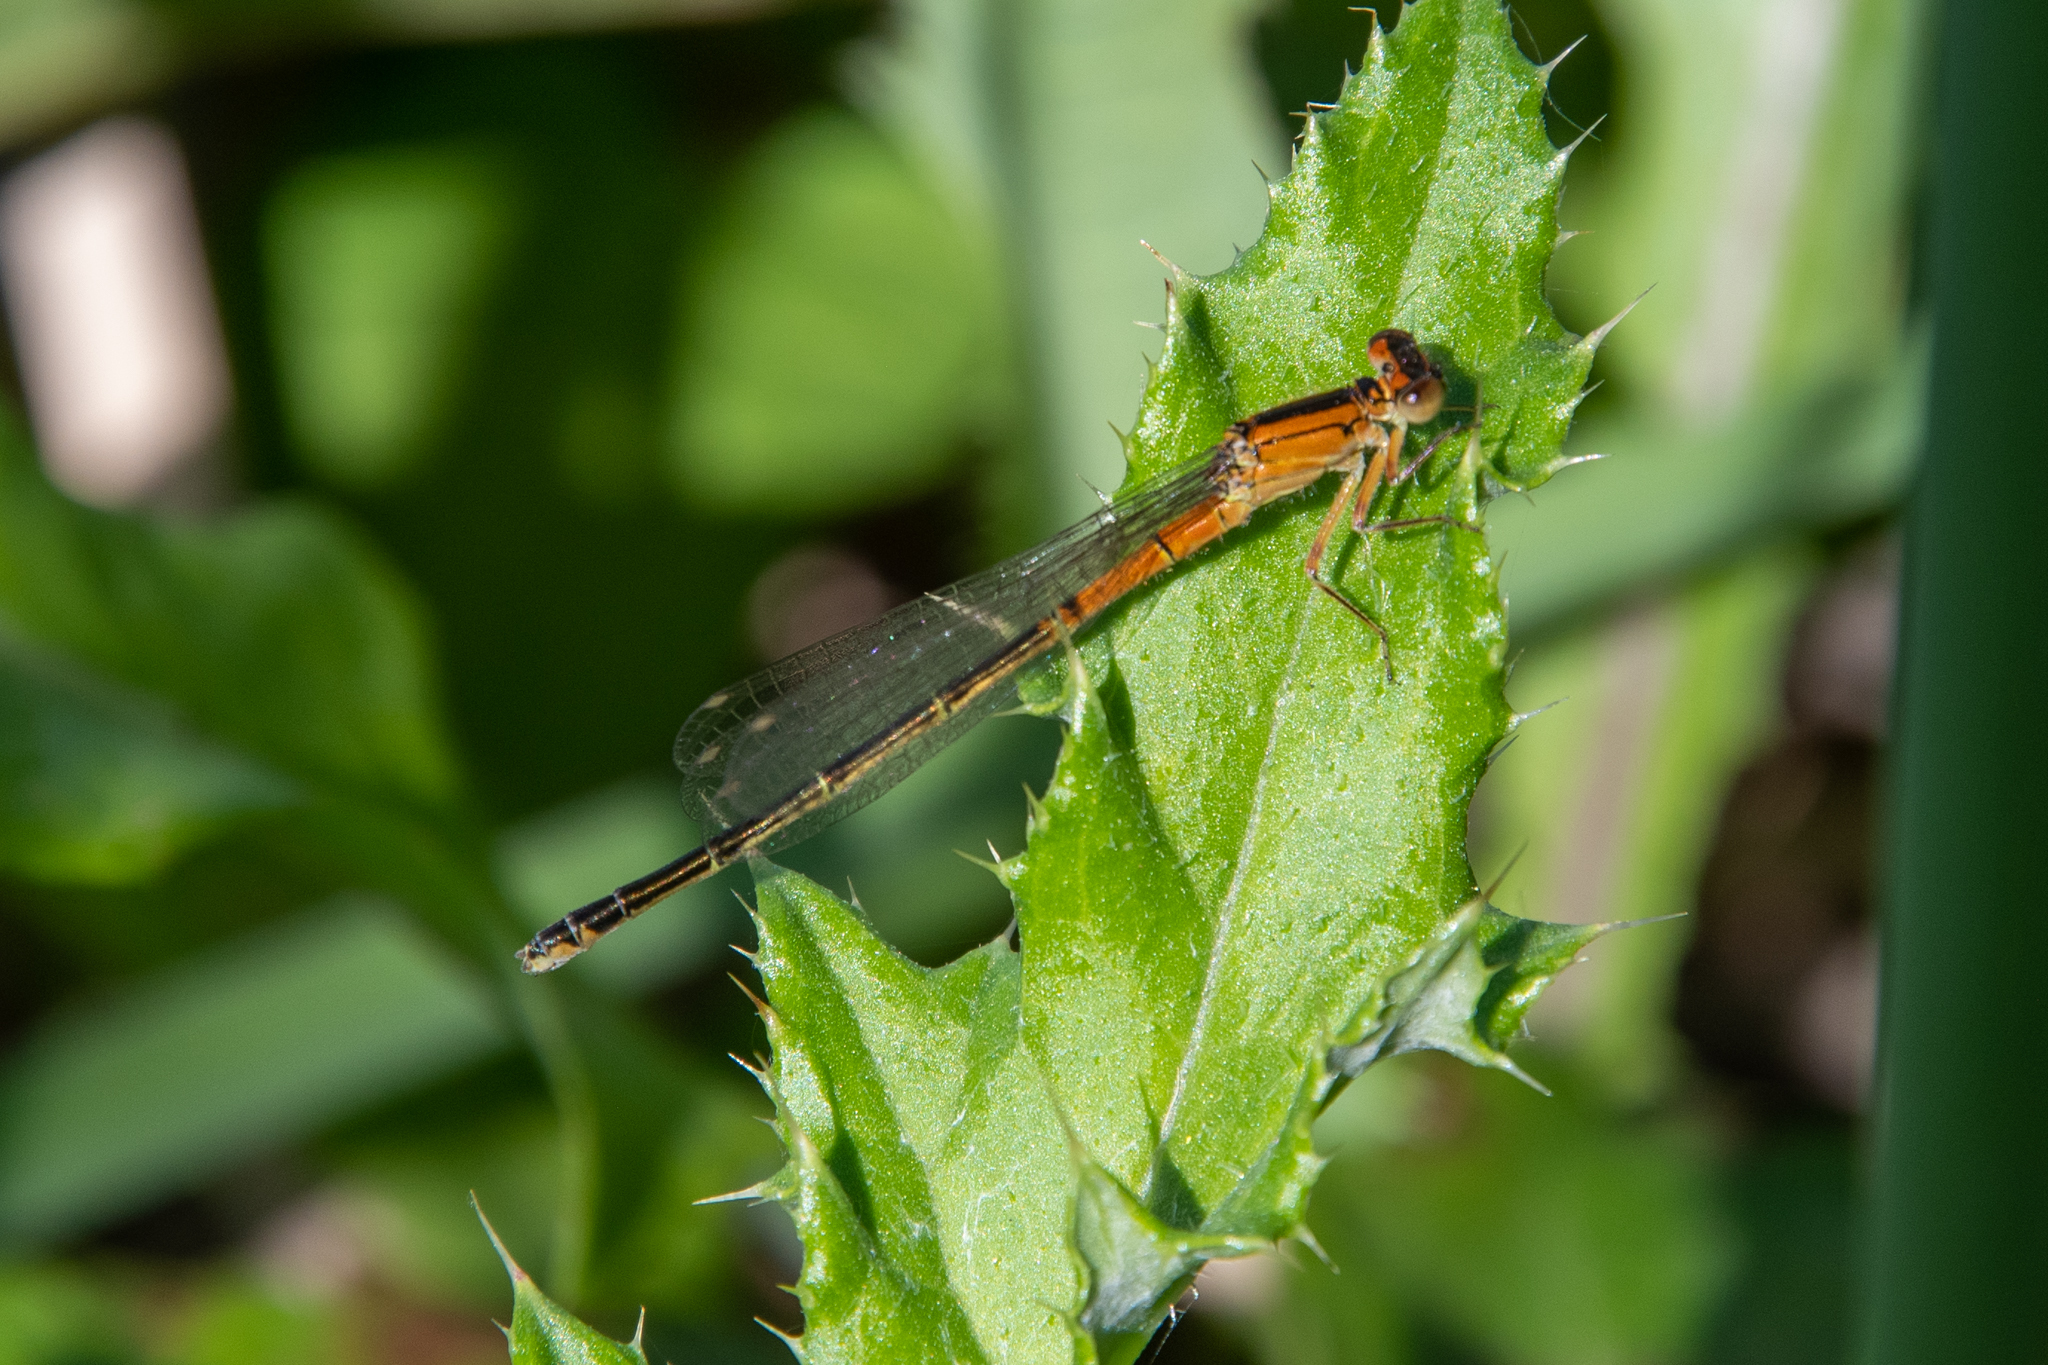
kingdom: Animalia
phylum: Arthropoda
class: Insecta
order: Odonata
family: Coenagrionidae
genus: Ischnura
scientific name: Ischnura verticalis
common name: Eastern forktail
